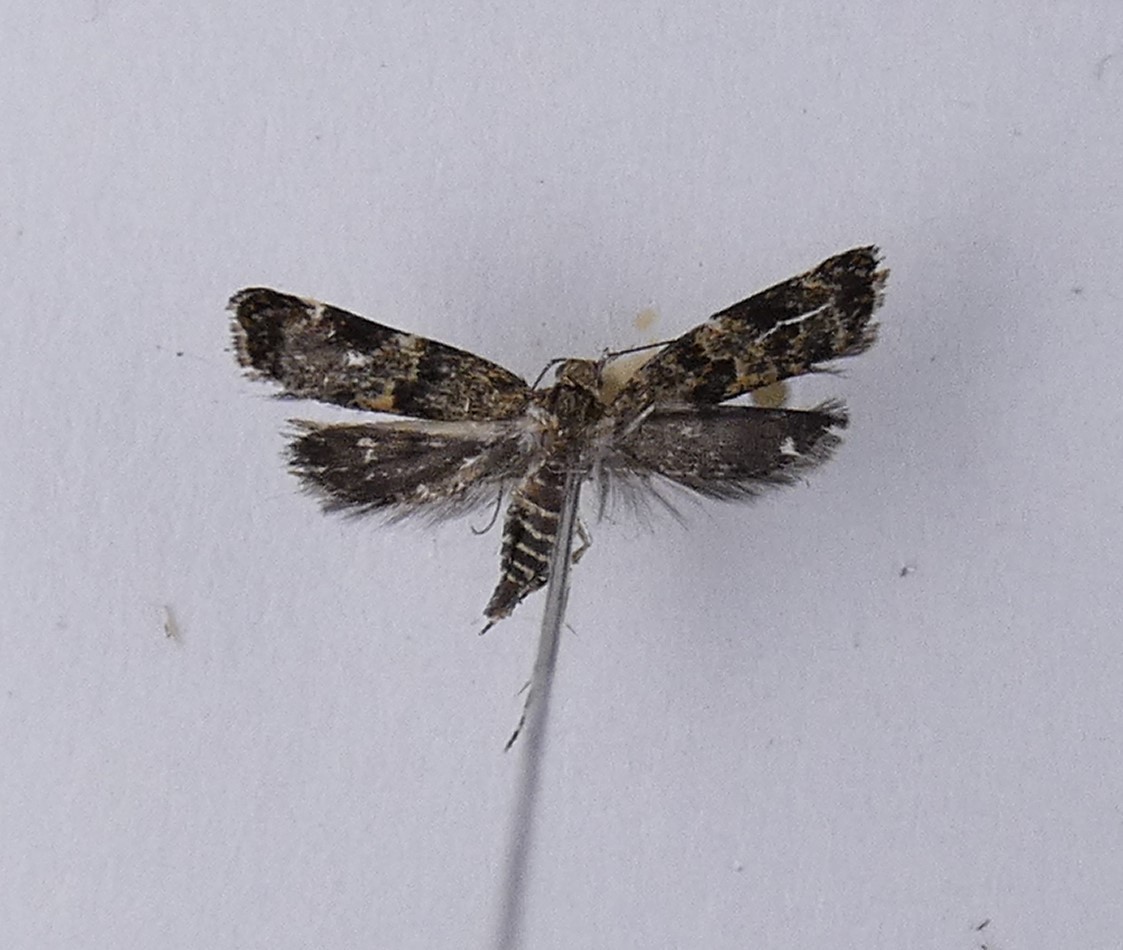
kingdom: Animalia
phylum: Arthropoda
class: Insecta
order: Lepidoptera
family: Oecophoridae
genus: Gymnobathra
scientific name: Gymnobathra omphalota
